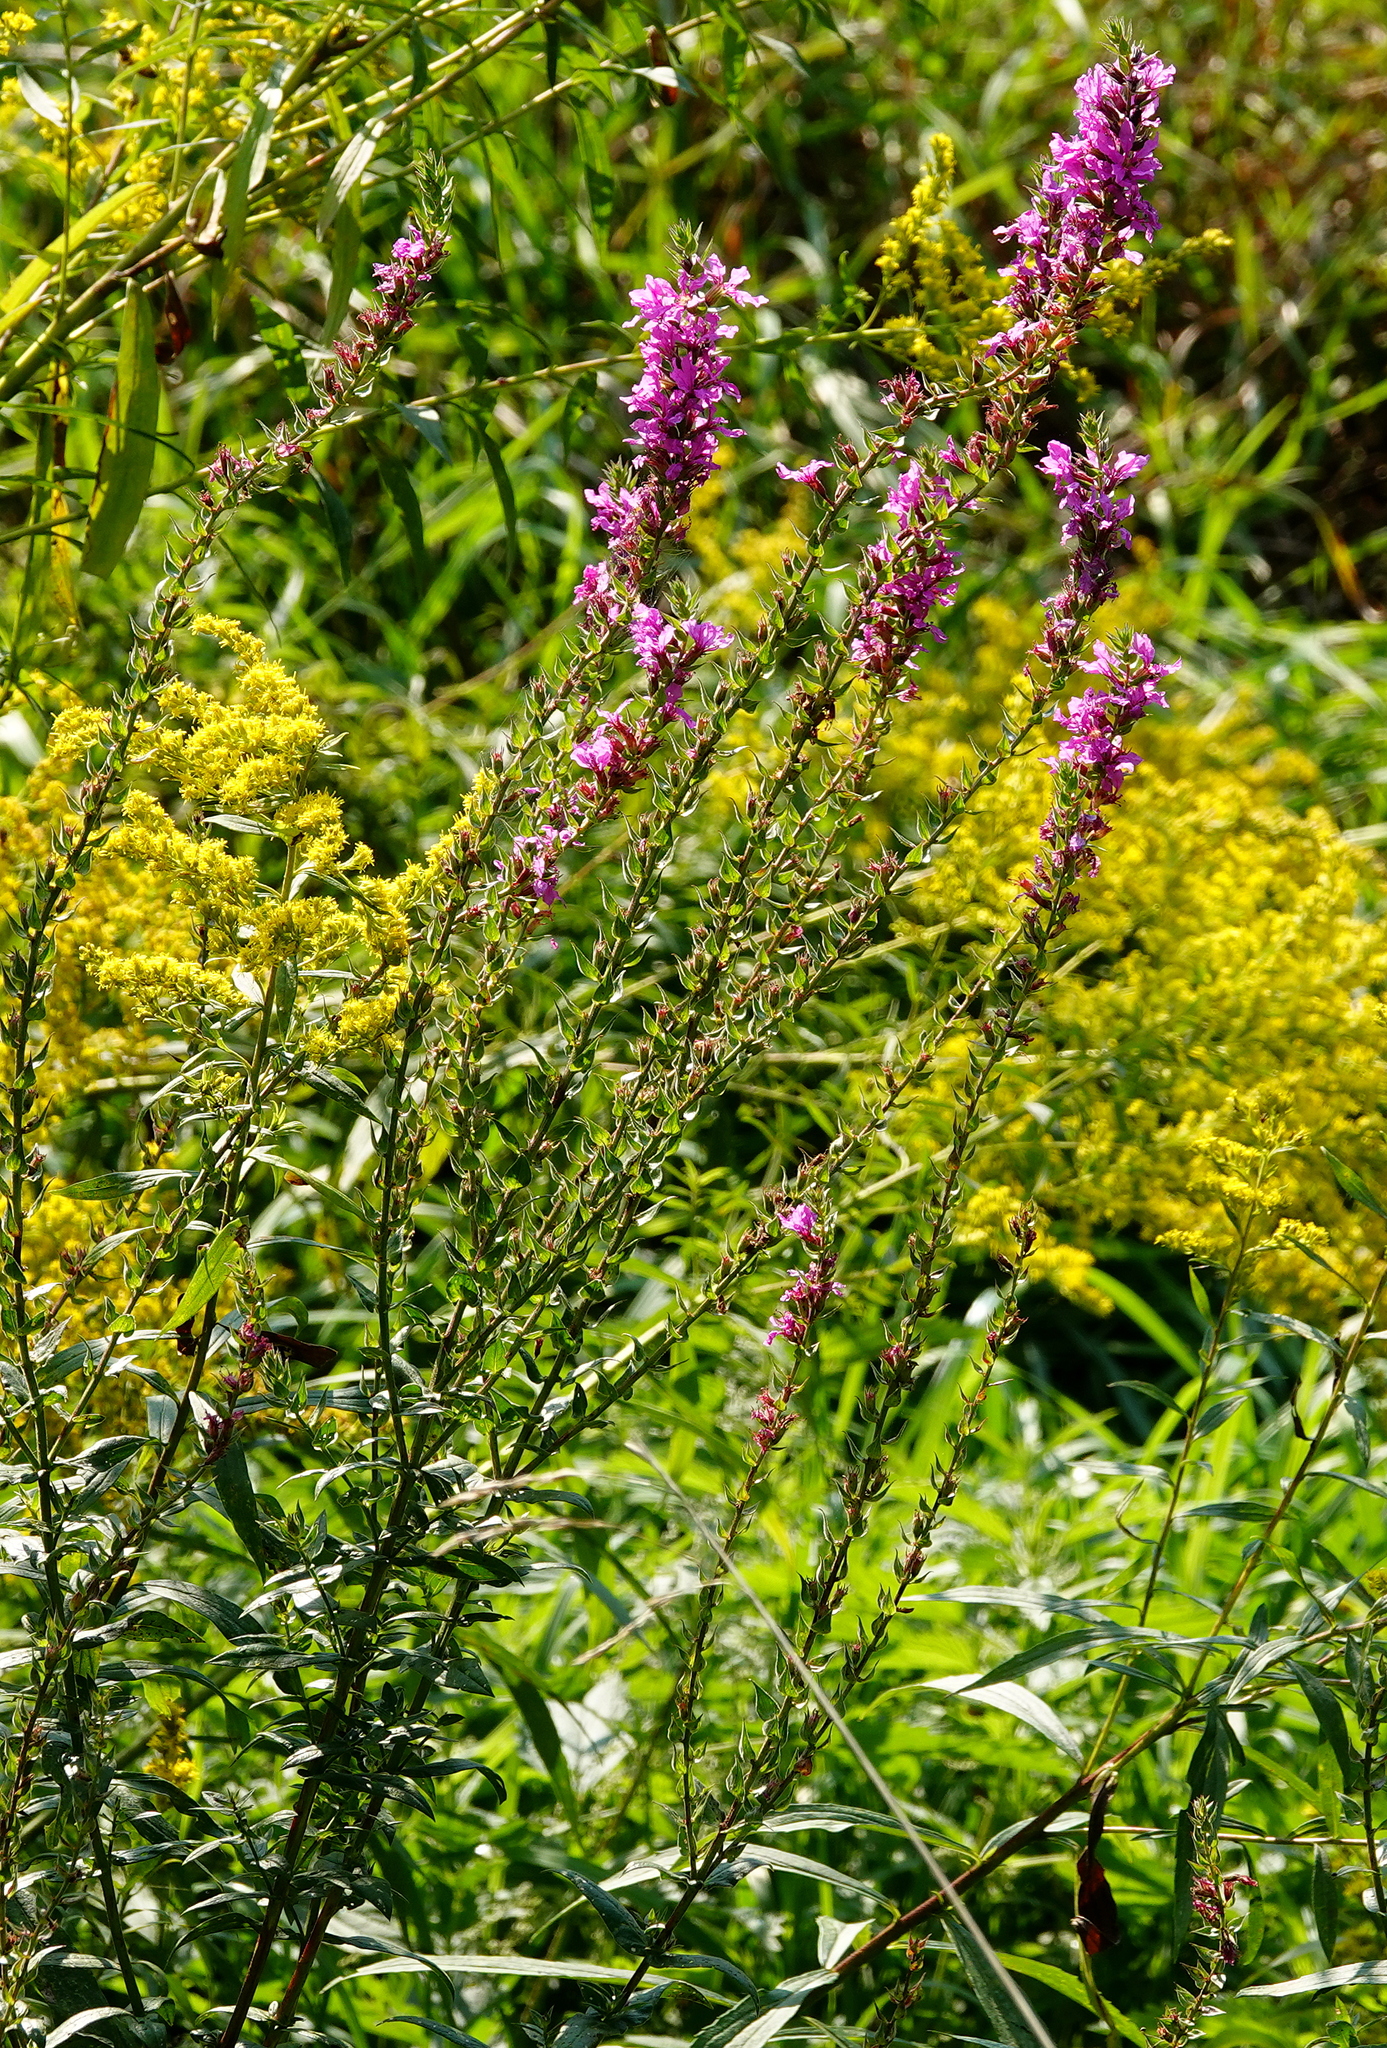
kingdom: Plantae
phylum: Tracheophyta
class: Magnoliopsida
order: Myrtales
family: Lythraceae
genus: Lythrum
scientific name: Lythrum salicaria
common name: Purple loosestrife
